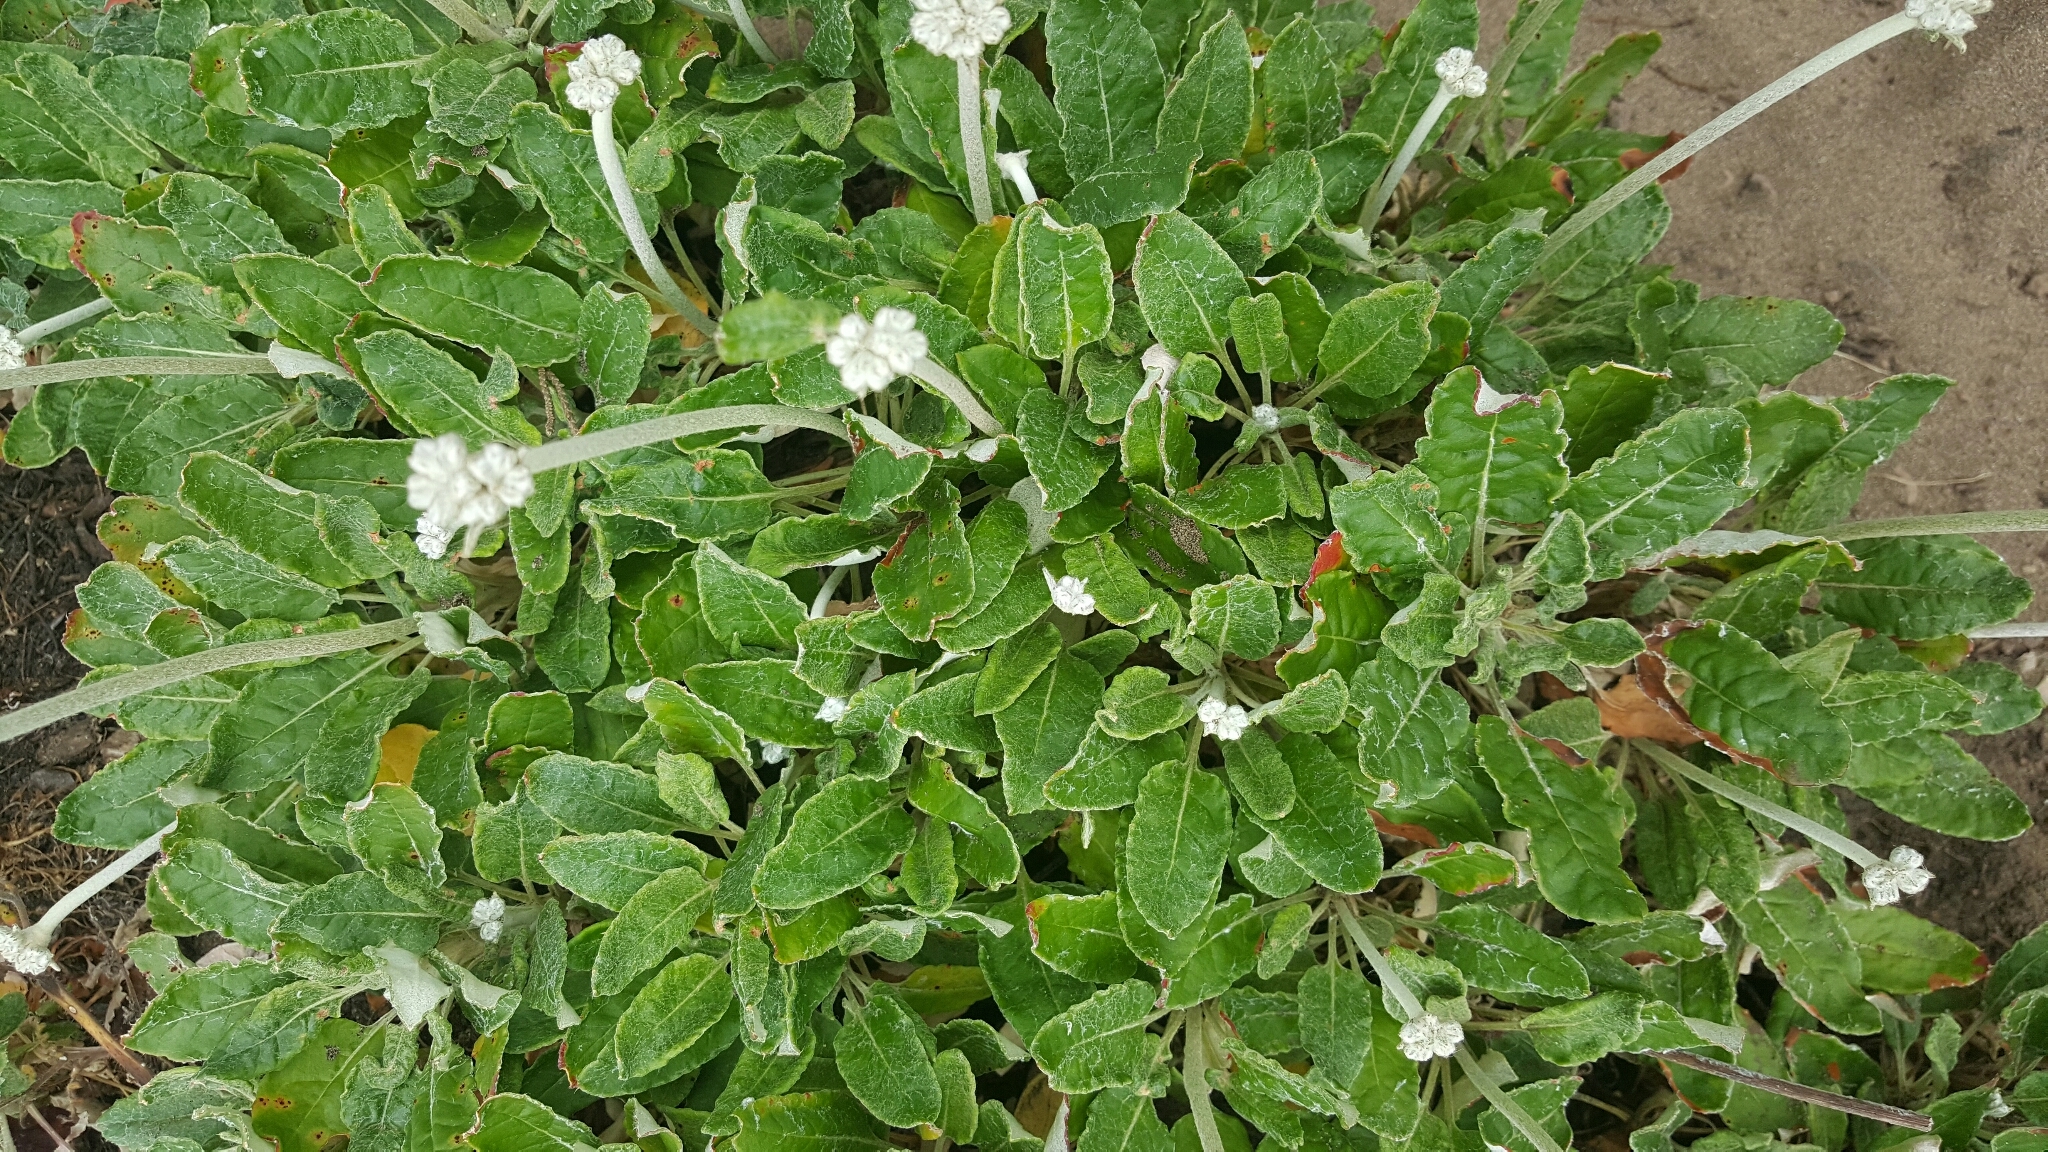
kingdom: Plantae
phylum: Tracheophyta
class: Magnoliopsida
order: Caryophyllales
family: Polygonaceae
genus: Eriogonum
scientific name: Eriogonum latifolium
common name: Seaside wild buckwheat
